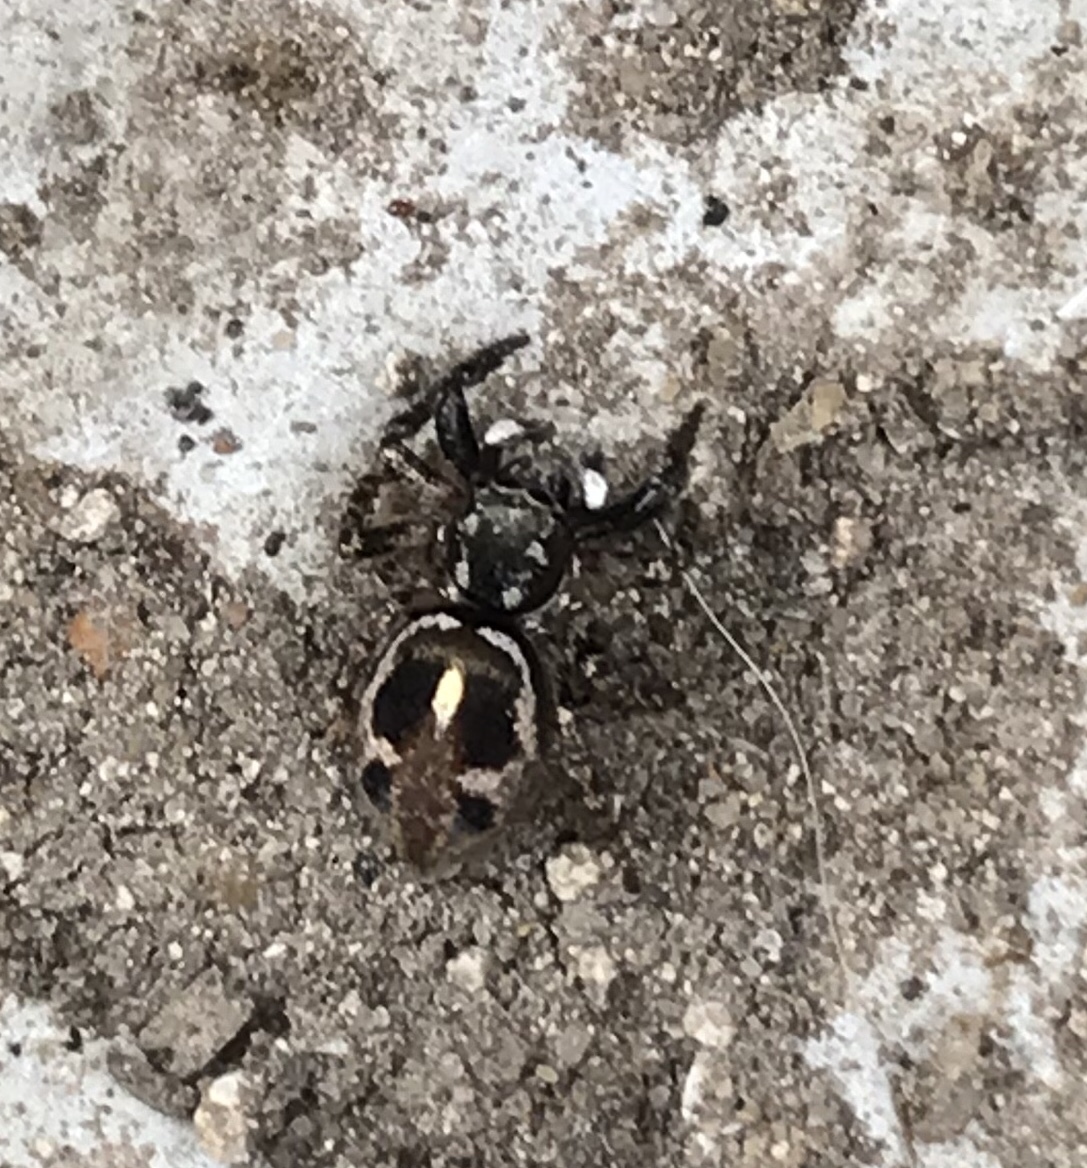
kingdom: Animalia
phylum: Arthropoda
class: Arachnida
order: Araneae
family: Salticidae
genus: Anasaitis
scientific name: Anasaitis canosa
